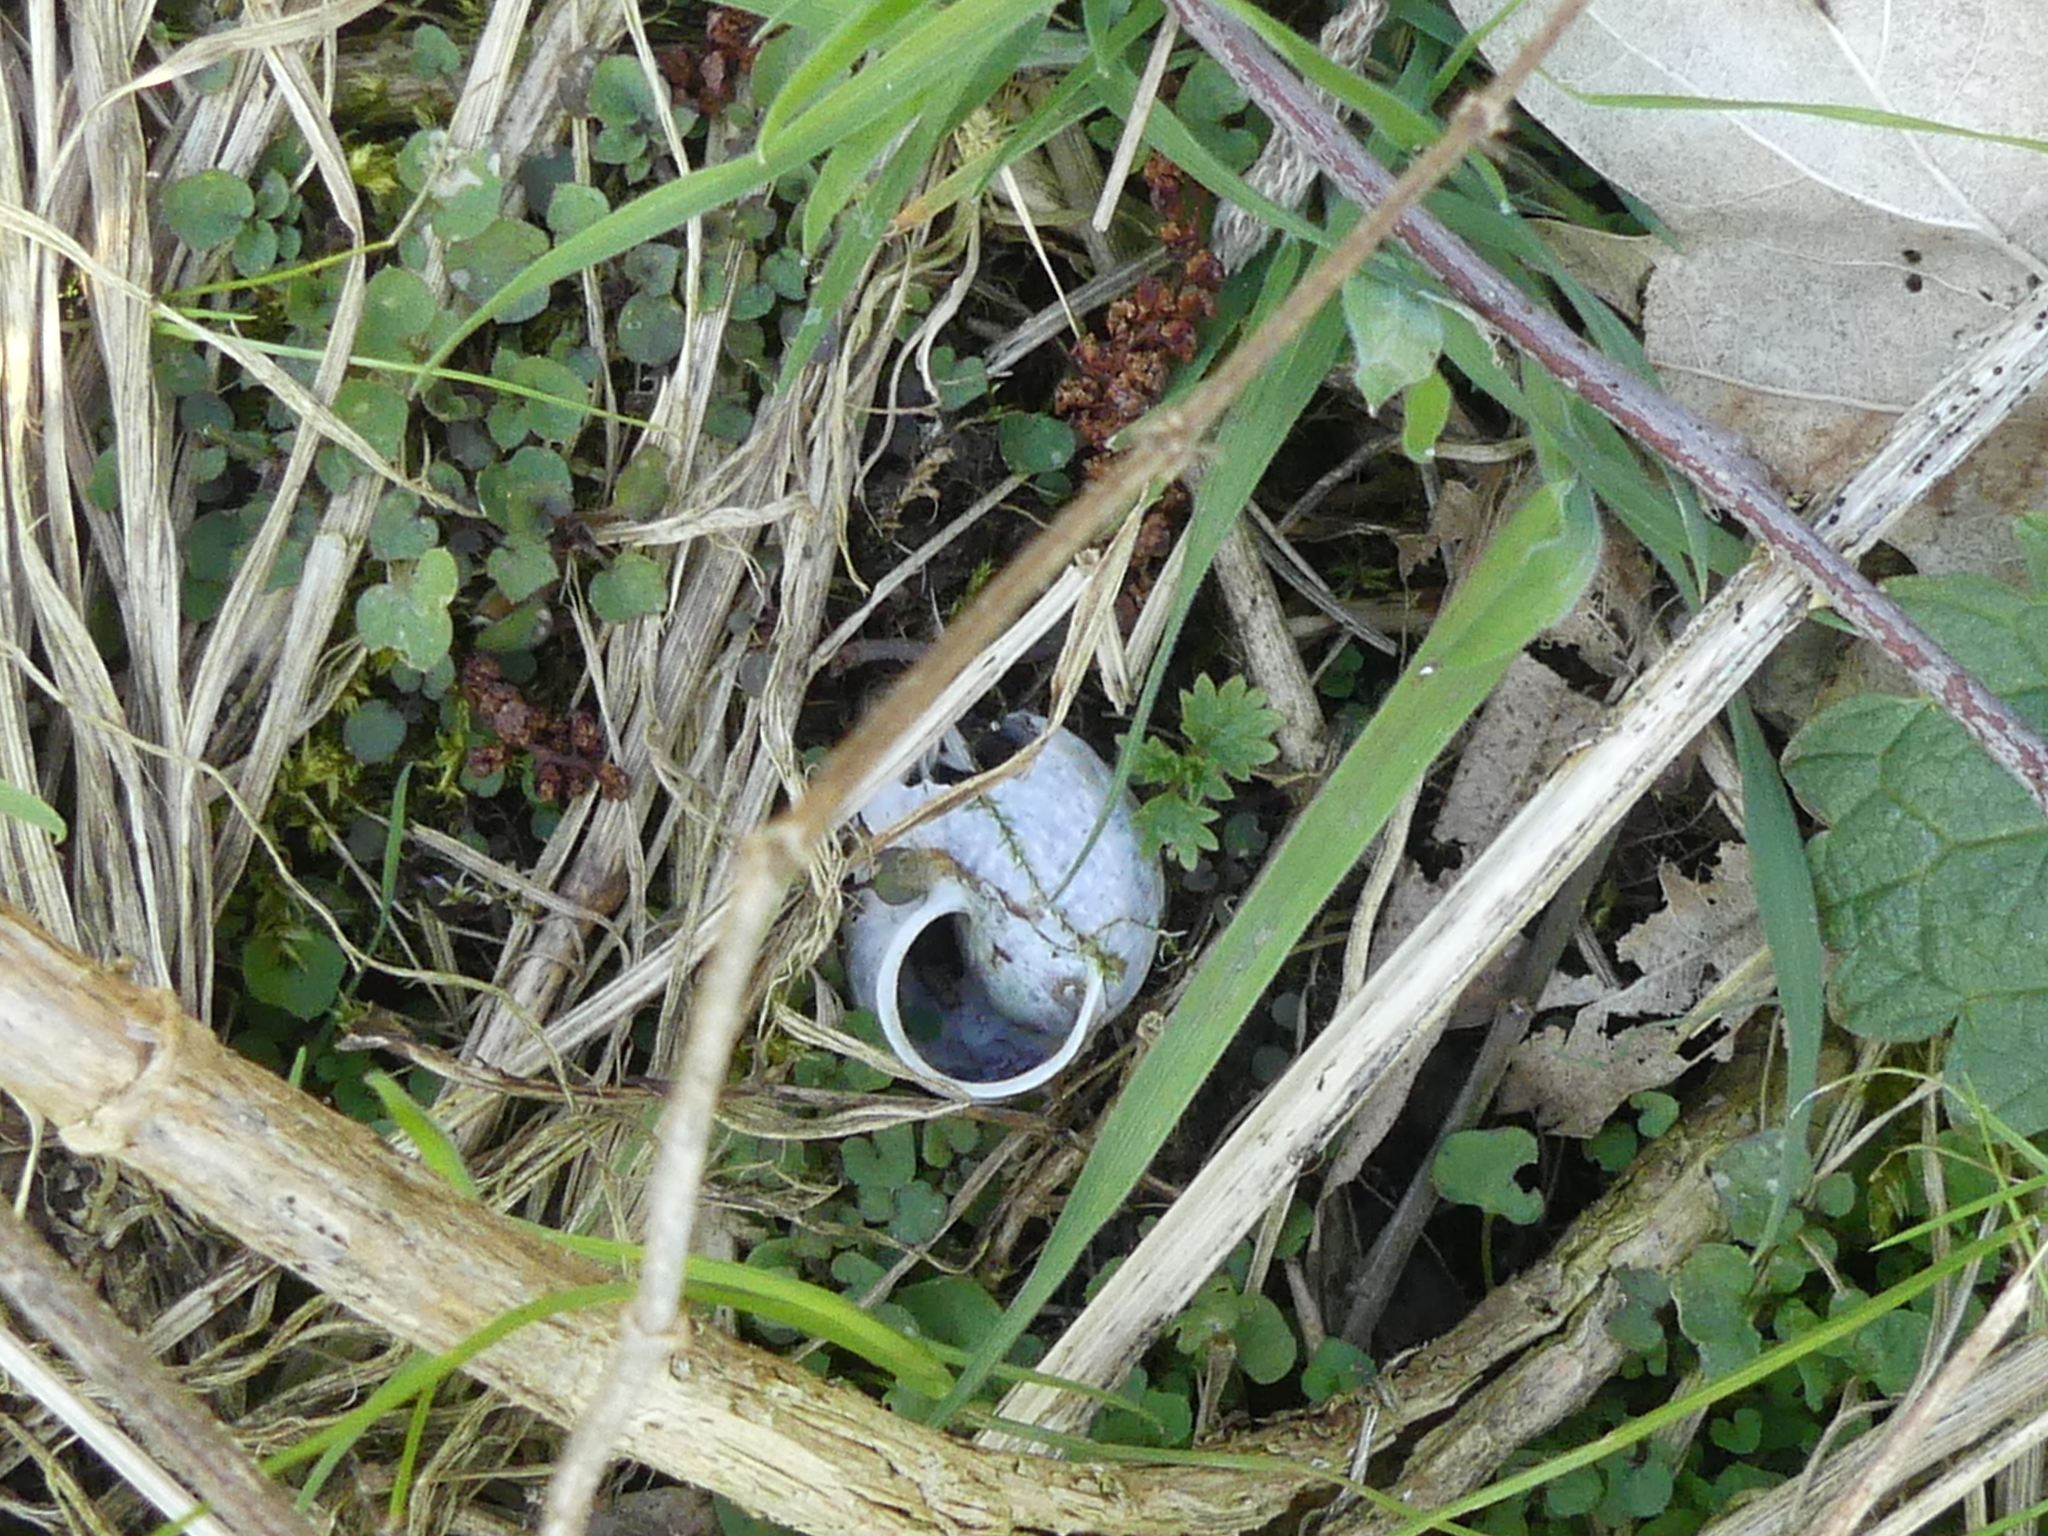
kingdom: Animalia
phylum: Mollusca
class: Gastropoda
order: Stylommatophora
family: Helicidae
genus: Arianta
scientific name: Arianta arbustorum
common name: Copse snail
